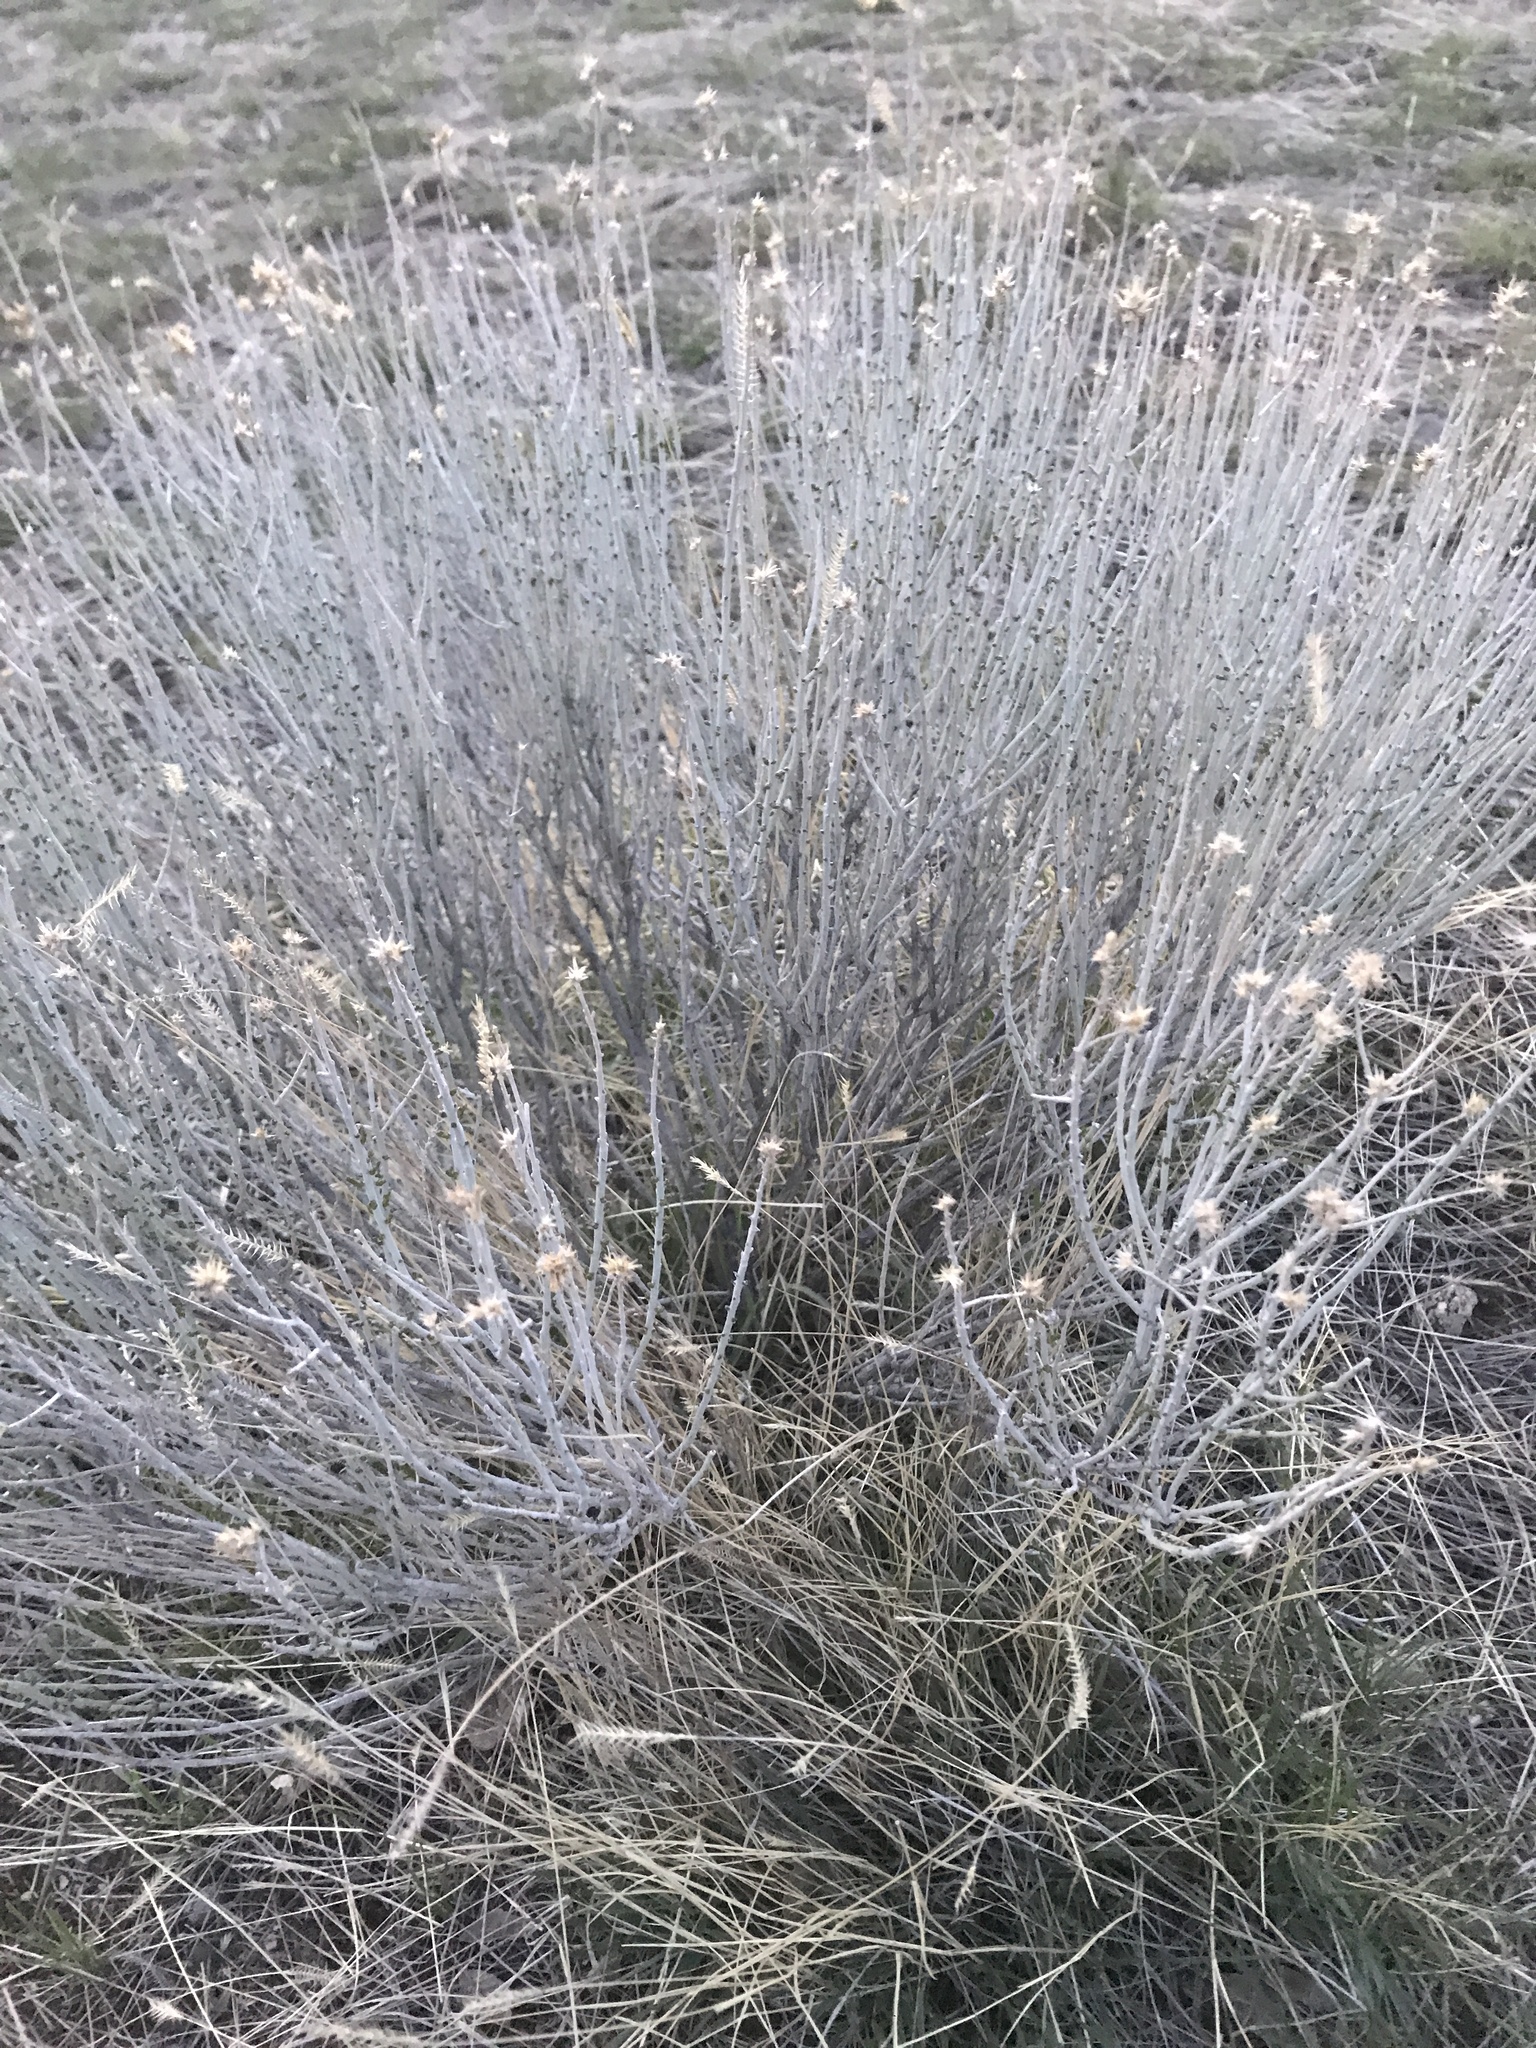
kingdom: Plantae
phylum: Tracheophyta
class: Magnoliopsida
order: Asterales
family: Asteraceae
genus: Ericameria
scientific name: Ericameria nauseosa
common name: Rubber rabbitbrush
